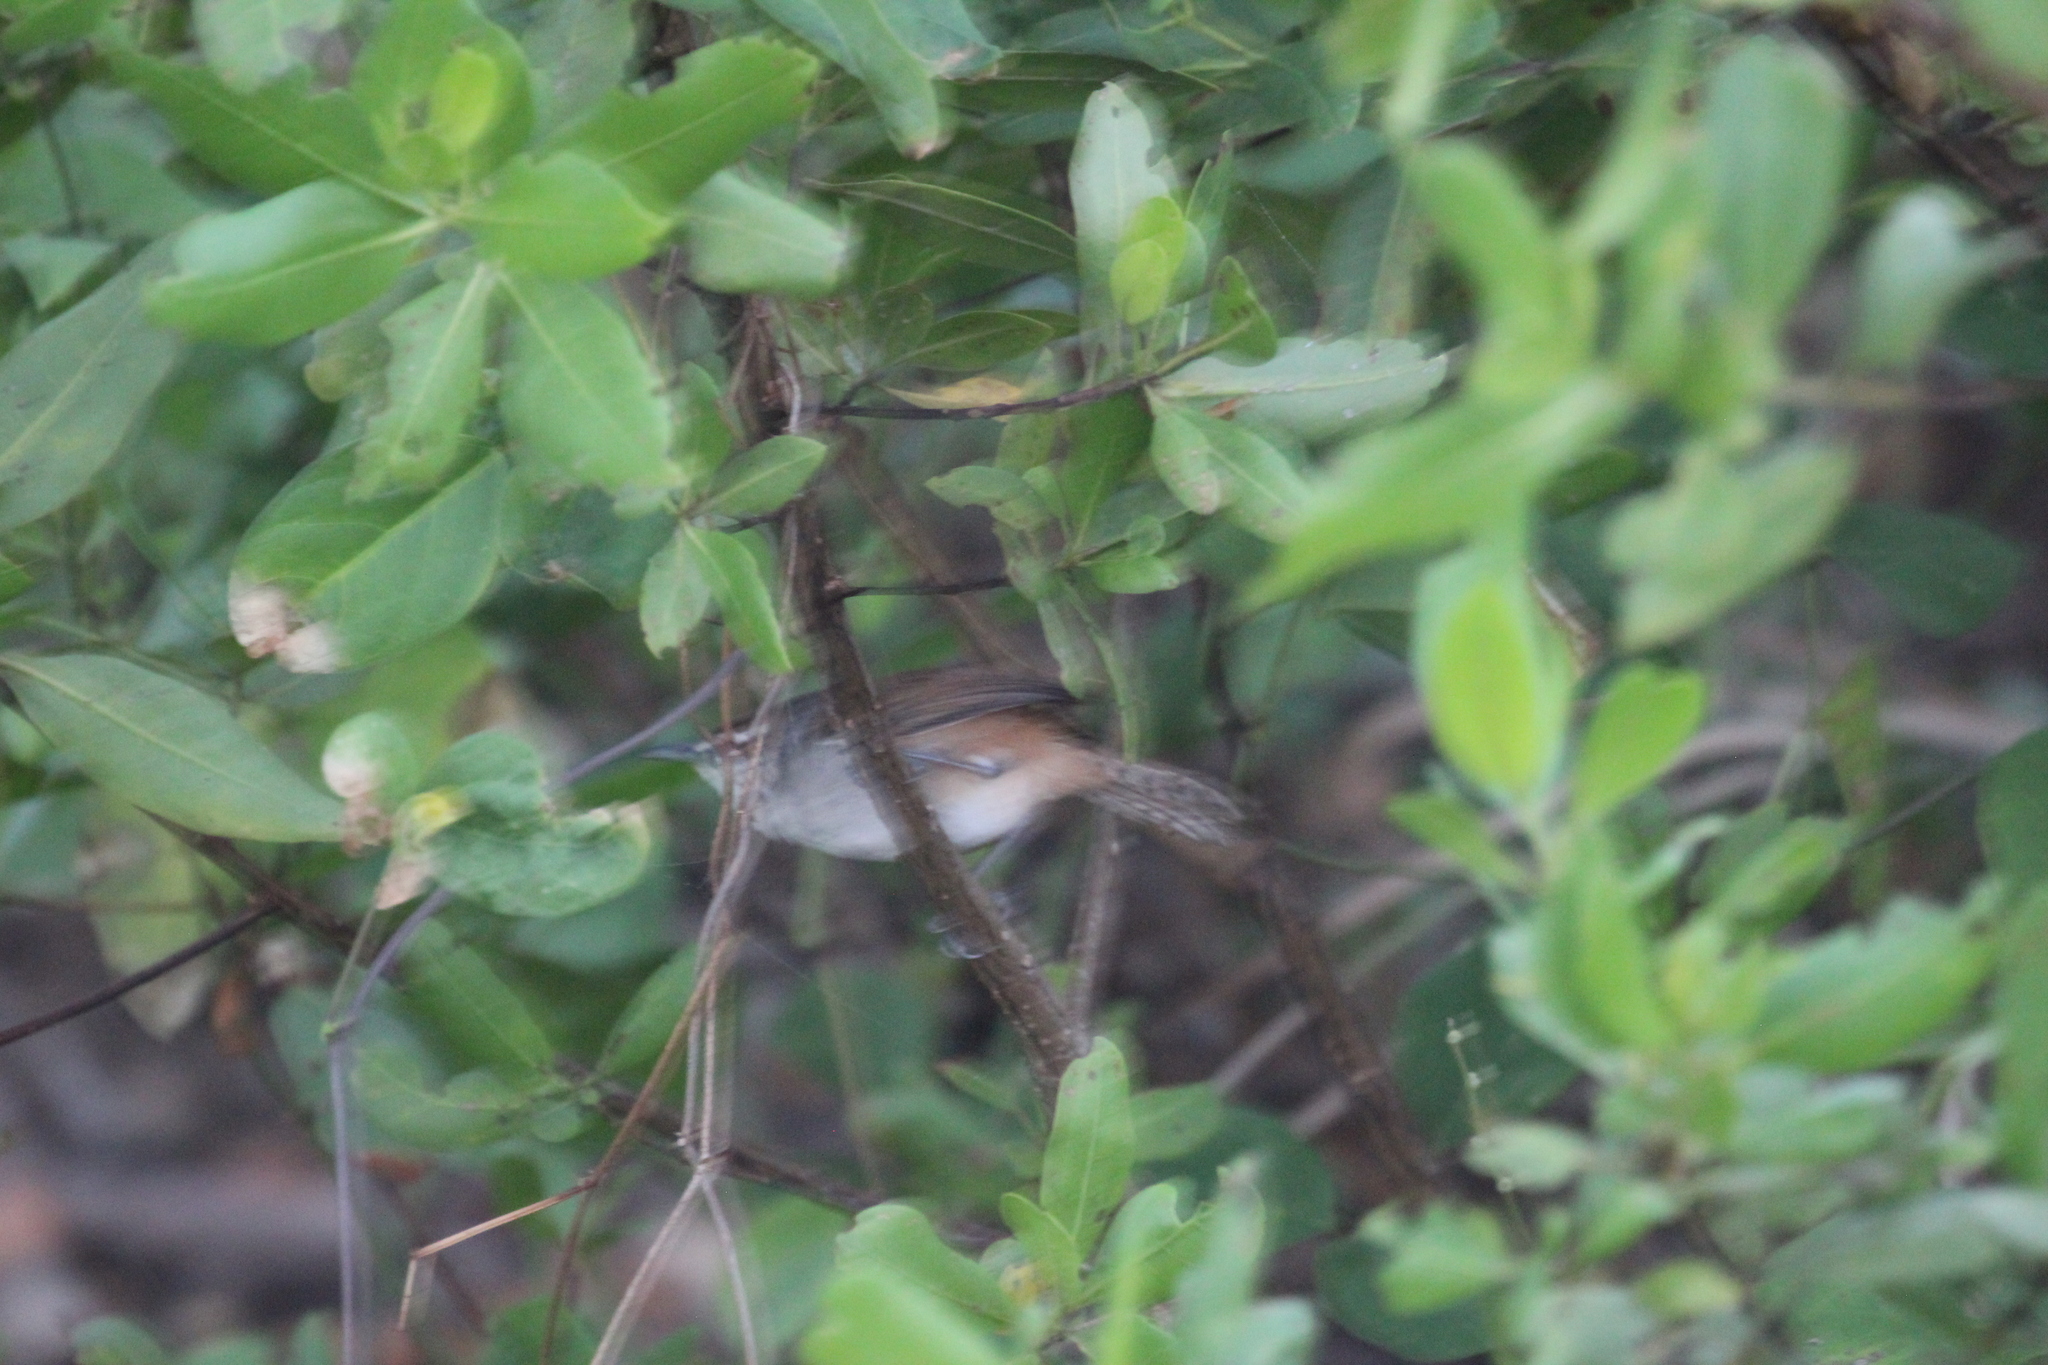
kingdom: Animalia
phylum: Chordata
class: Aves
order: Passeriformes
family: Troglodytidae
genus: Cantorchilus
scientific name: Cantorchilus modestus
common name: Cabanis's wren
